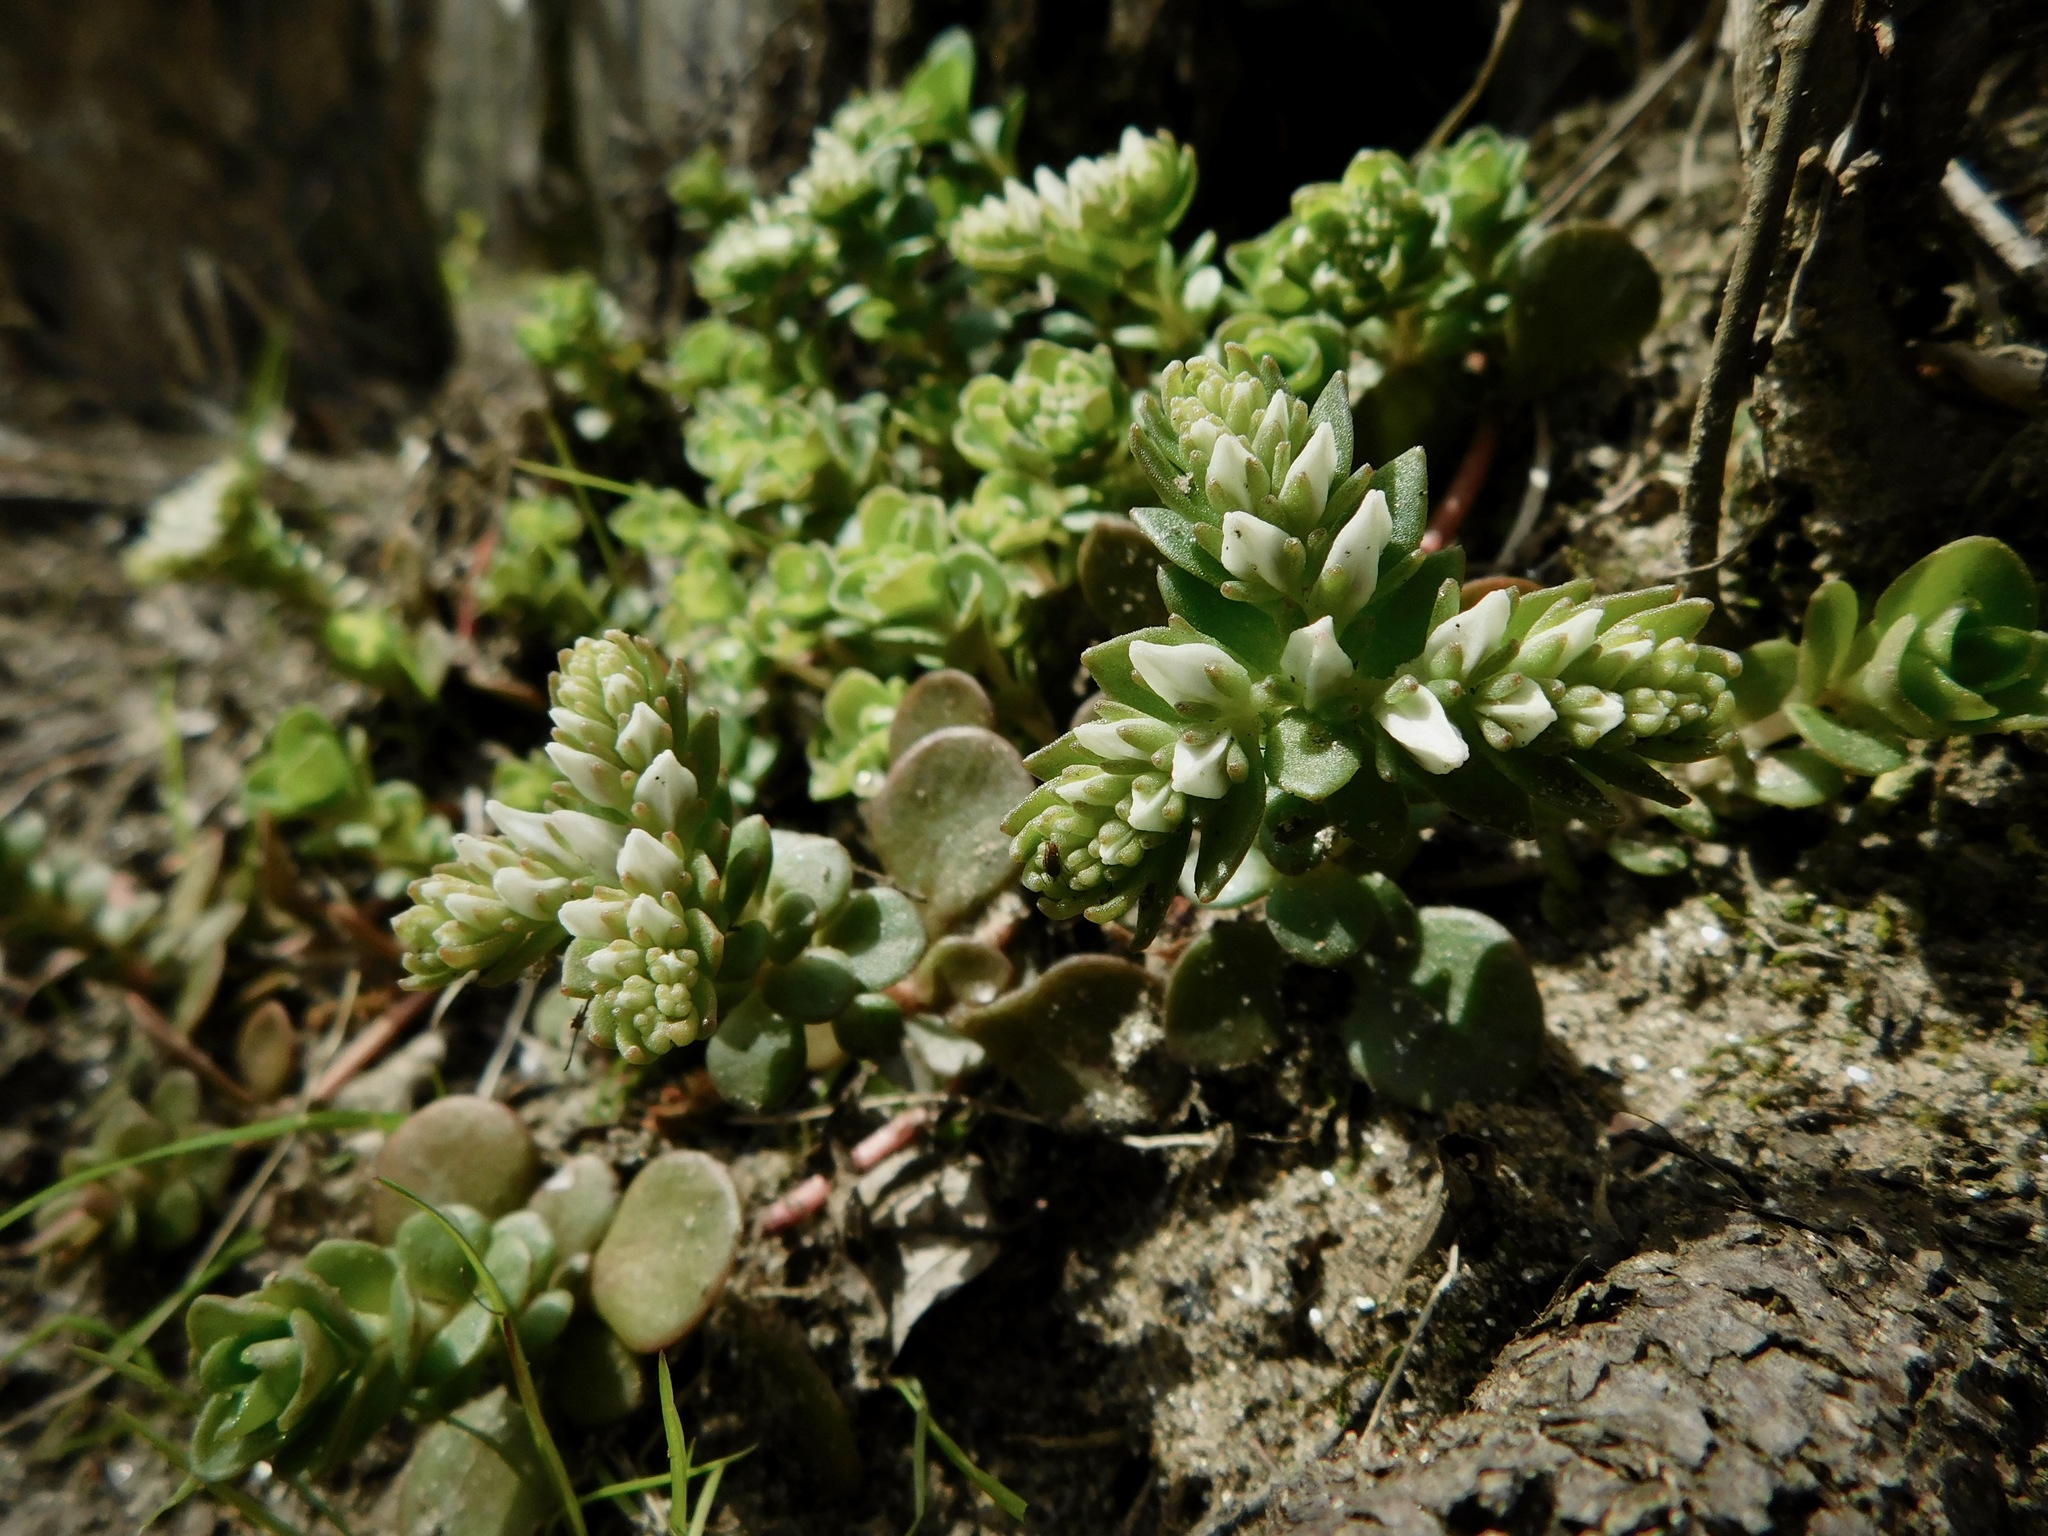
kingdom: Plantae
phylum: Tracheophyta
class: Magnoliopsida
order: Saxifragales
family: Crassulaceae
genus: Sedum
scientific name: Sedum ternatum
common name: Wild stonecrop
